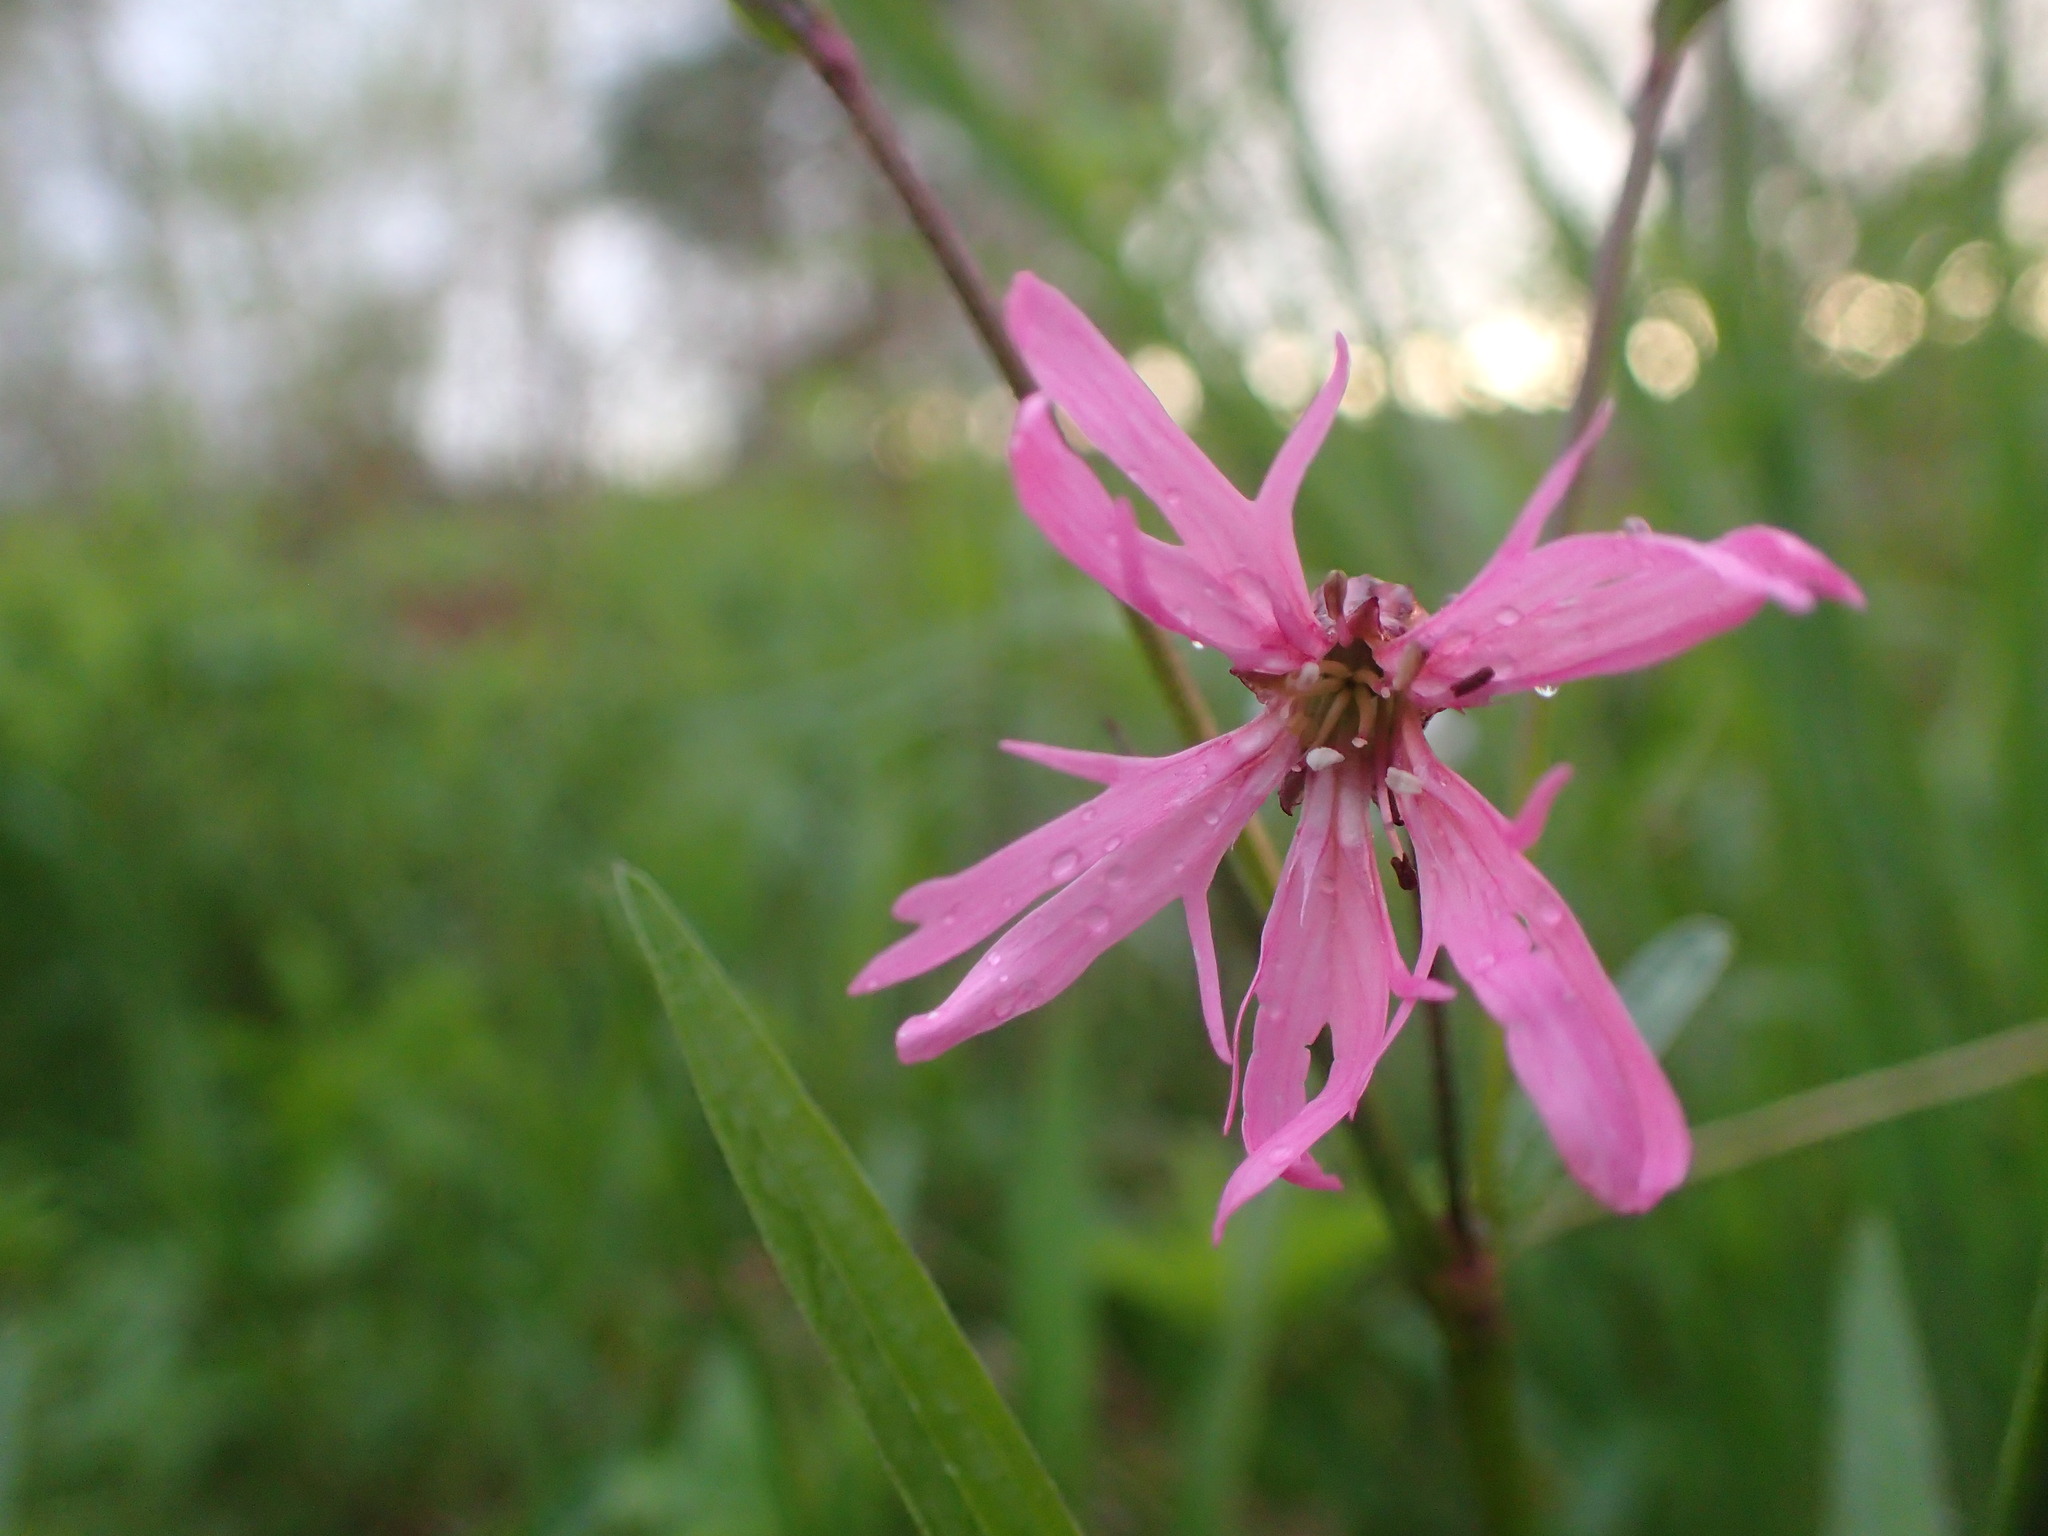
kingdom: Plantae
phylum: Tracheophyta
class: Magnoliopsida
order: Caryophyllales
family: Caryophyllaceae
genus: Silene
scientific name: Silene flos-cuculi
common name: Ragged-robin
